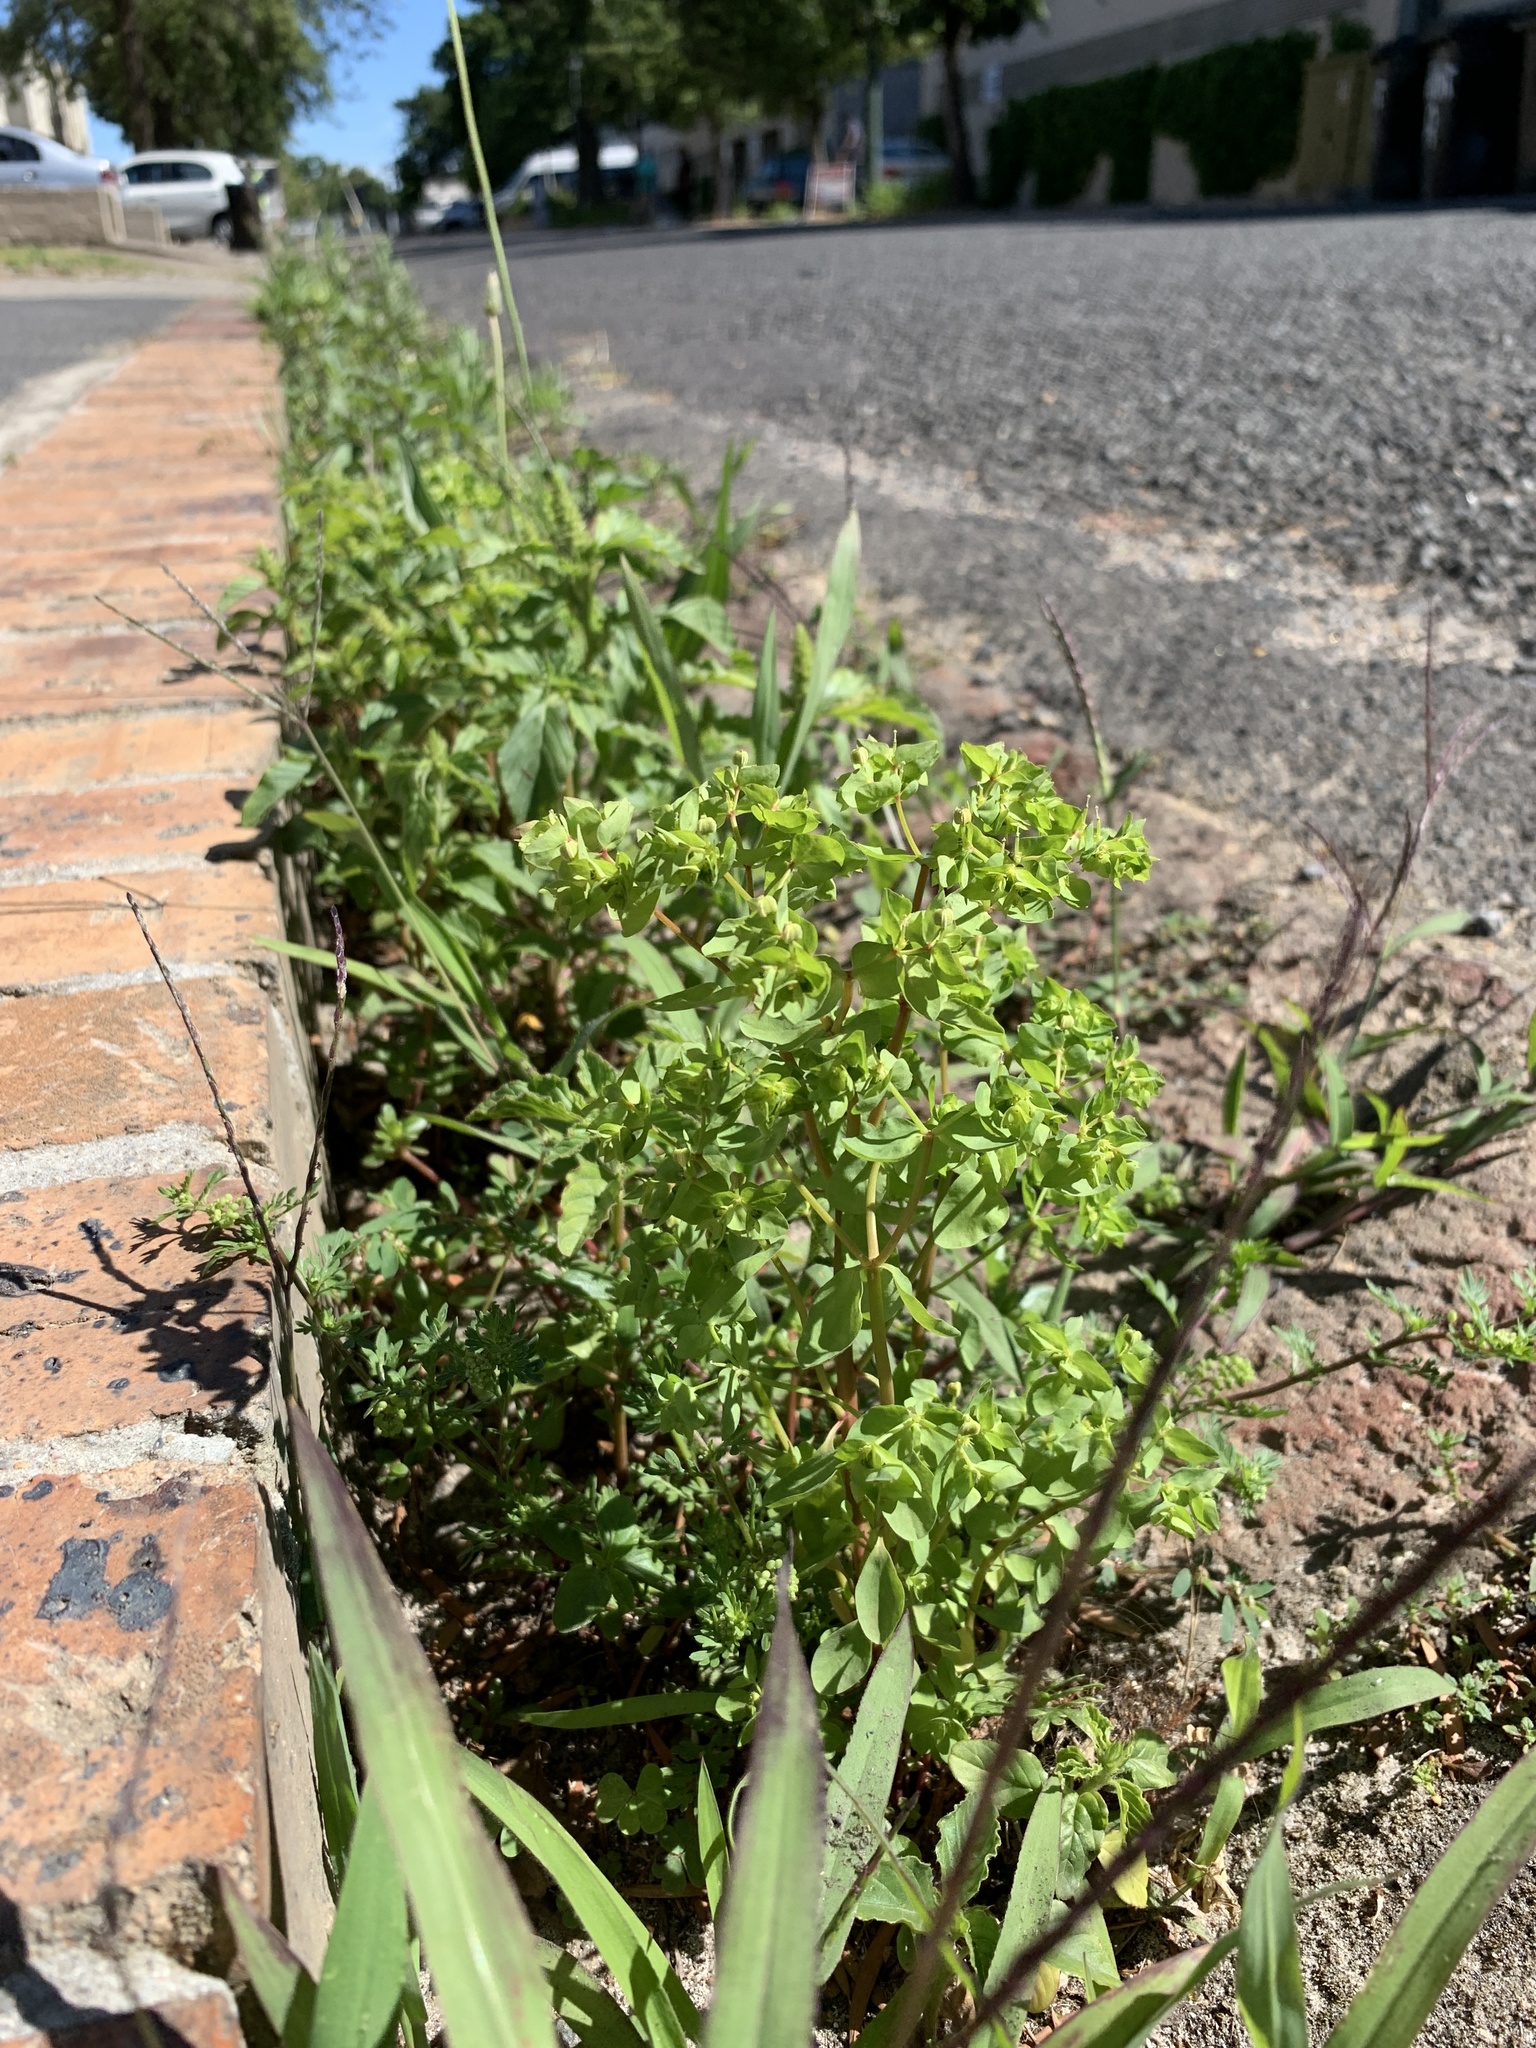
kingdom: Plantae
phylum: Tracheophyta
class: Magnoliopsida
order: Malpighiales
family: Euphorbiaceae
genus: Euphorbia
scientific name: Euphorbia peplus
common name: Petty spurge
